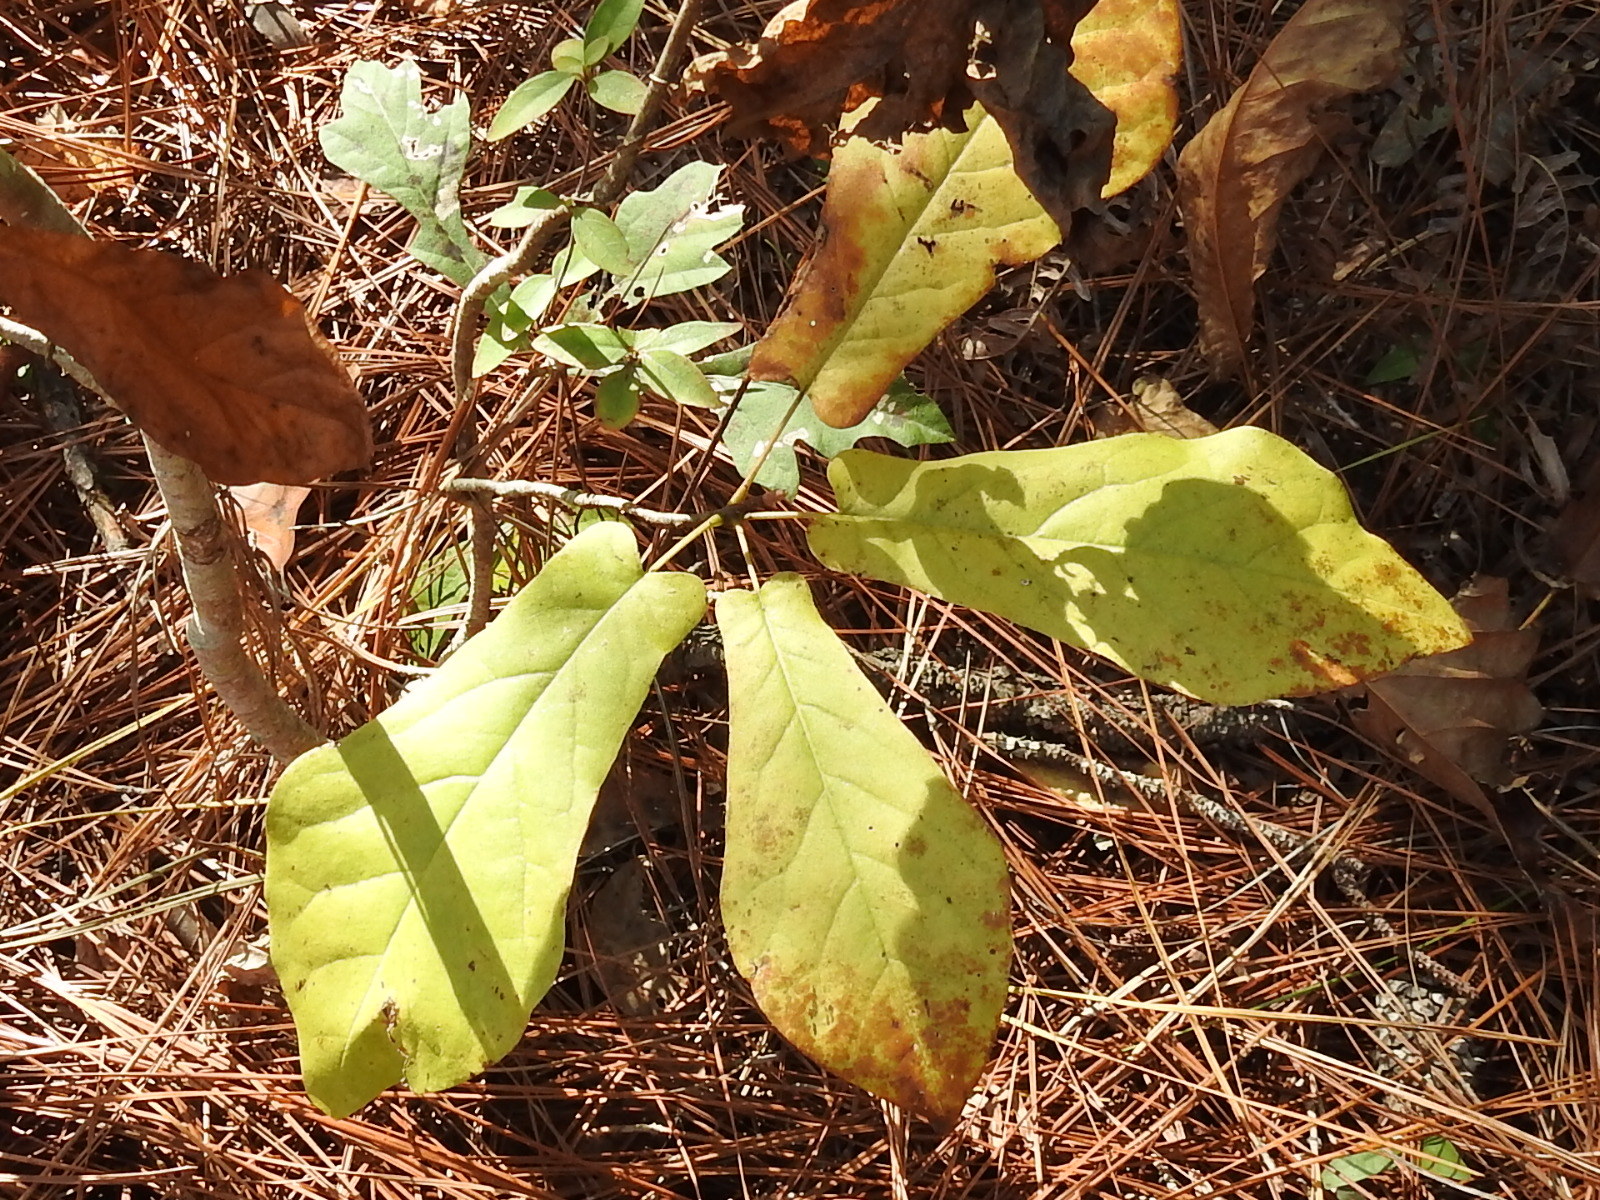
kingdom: Plantae
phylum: Tracheophyta
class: Magnoliopsida
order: Magnoliales
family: Magnoliaceae
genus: Magnolia
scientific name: Magnolia fraseri
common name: Fraser's magnolia
